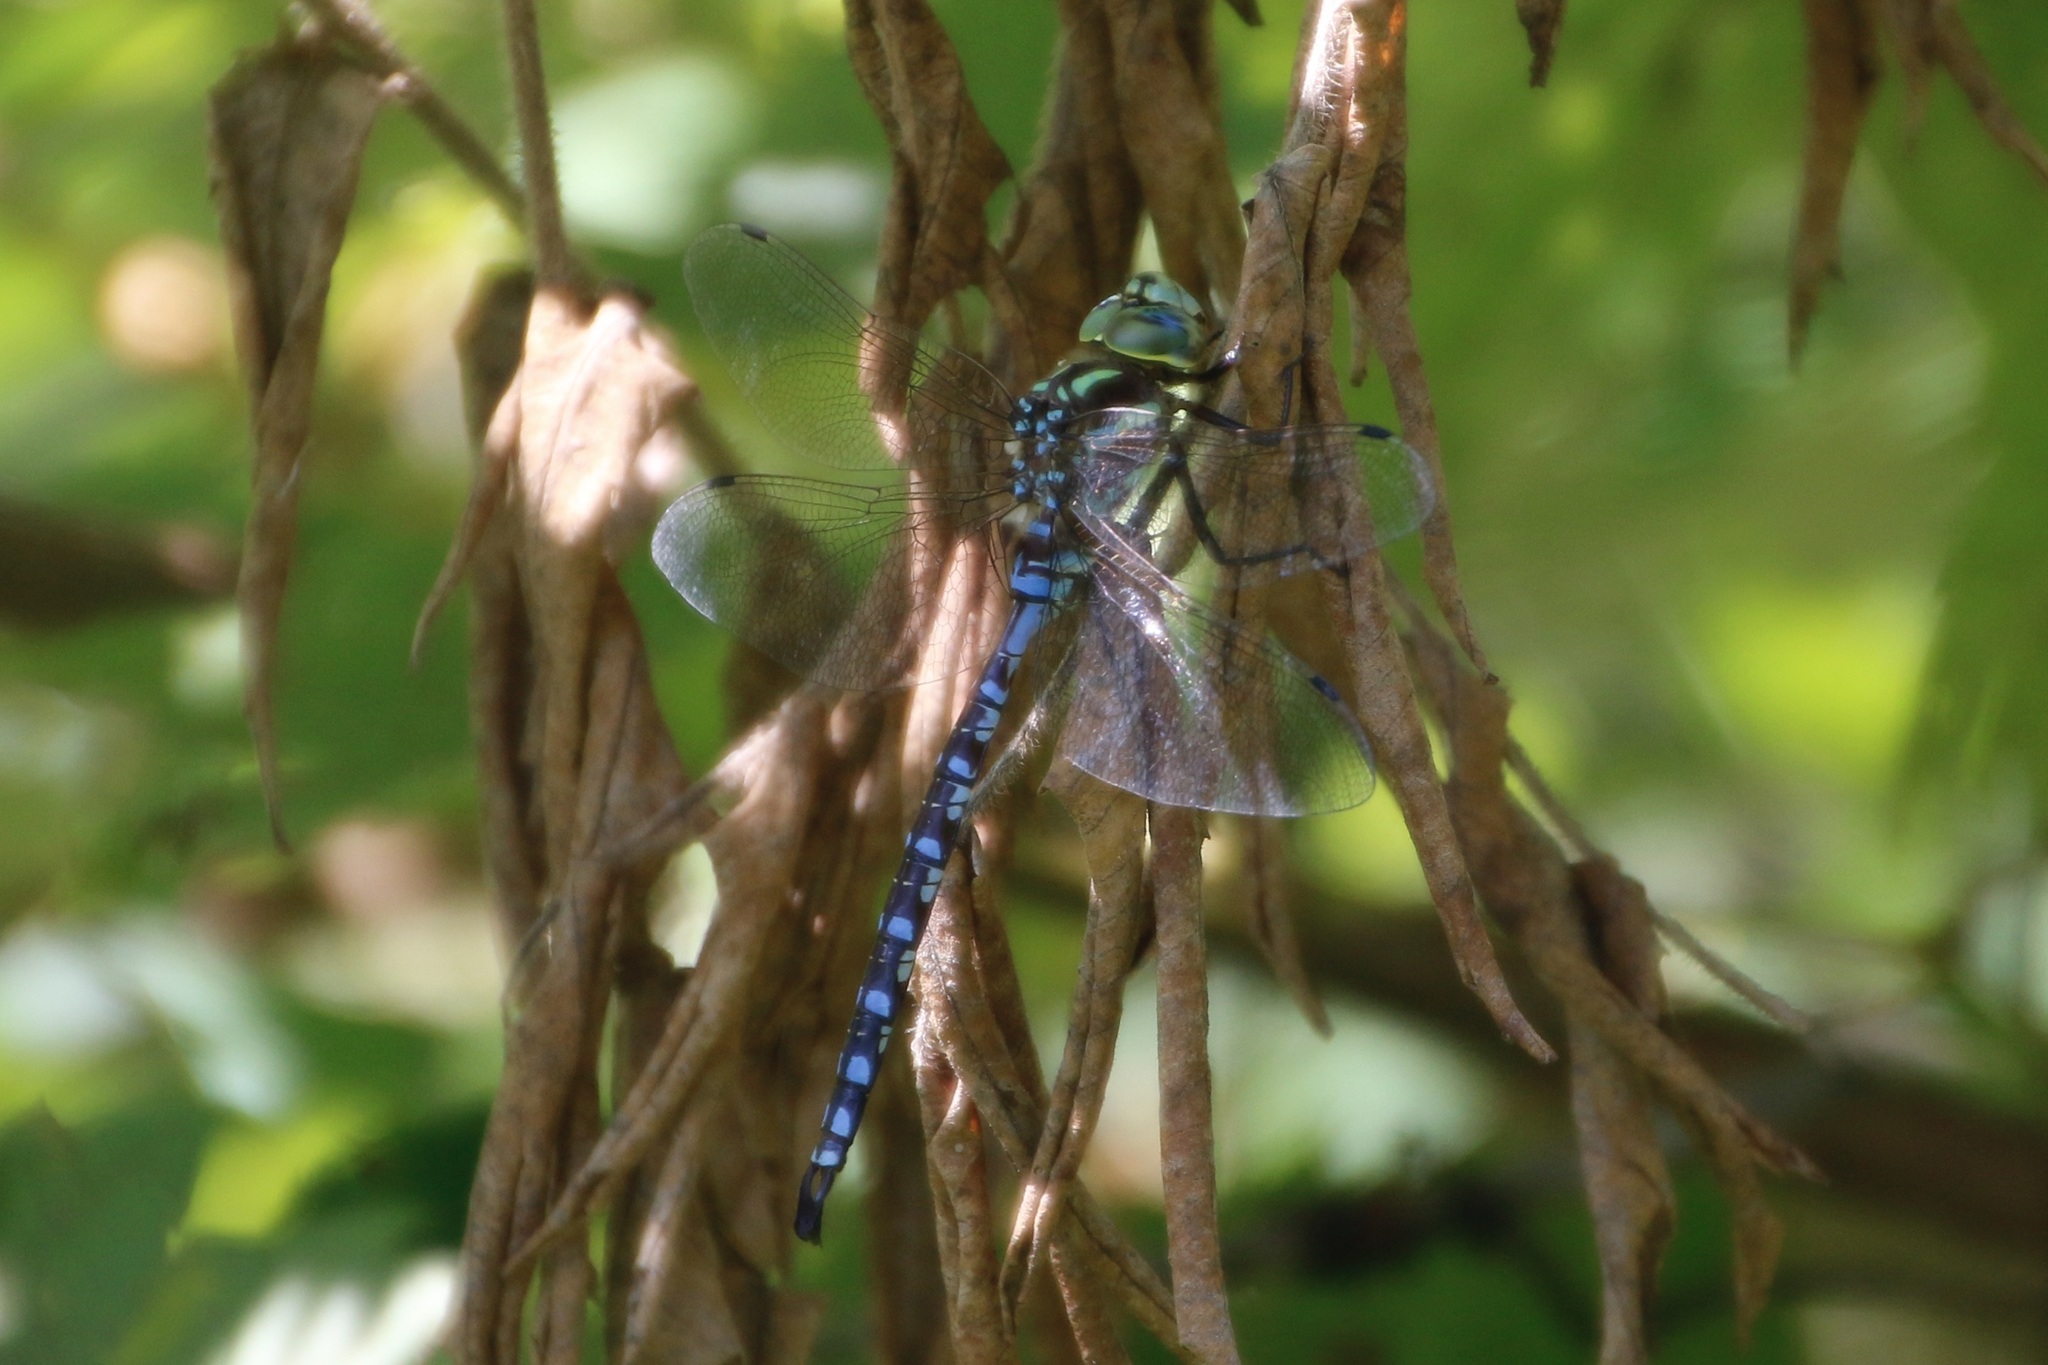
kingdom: Animalia
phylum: Arthropoda
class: Insecta
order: Odonata
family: Aeshnidae
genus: Aeshna
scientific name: Aeshna constricta
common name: Lance-tipped darner
